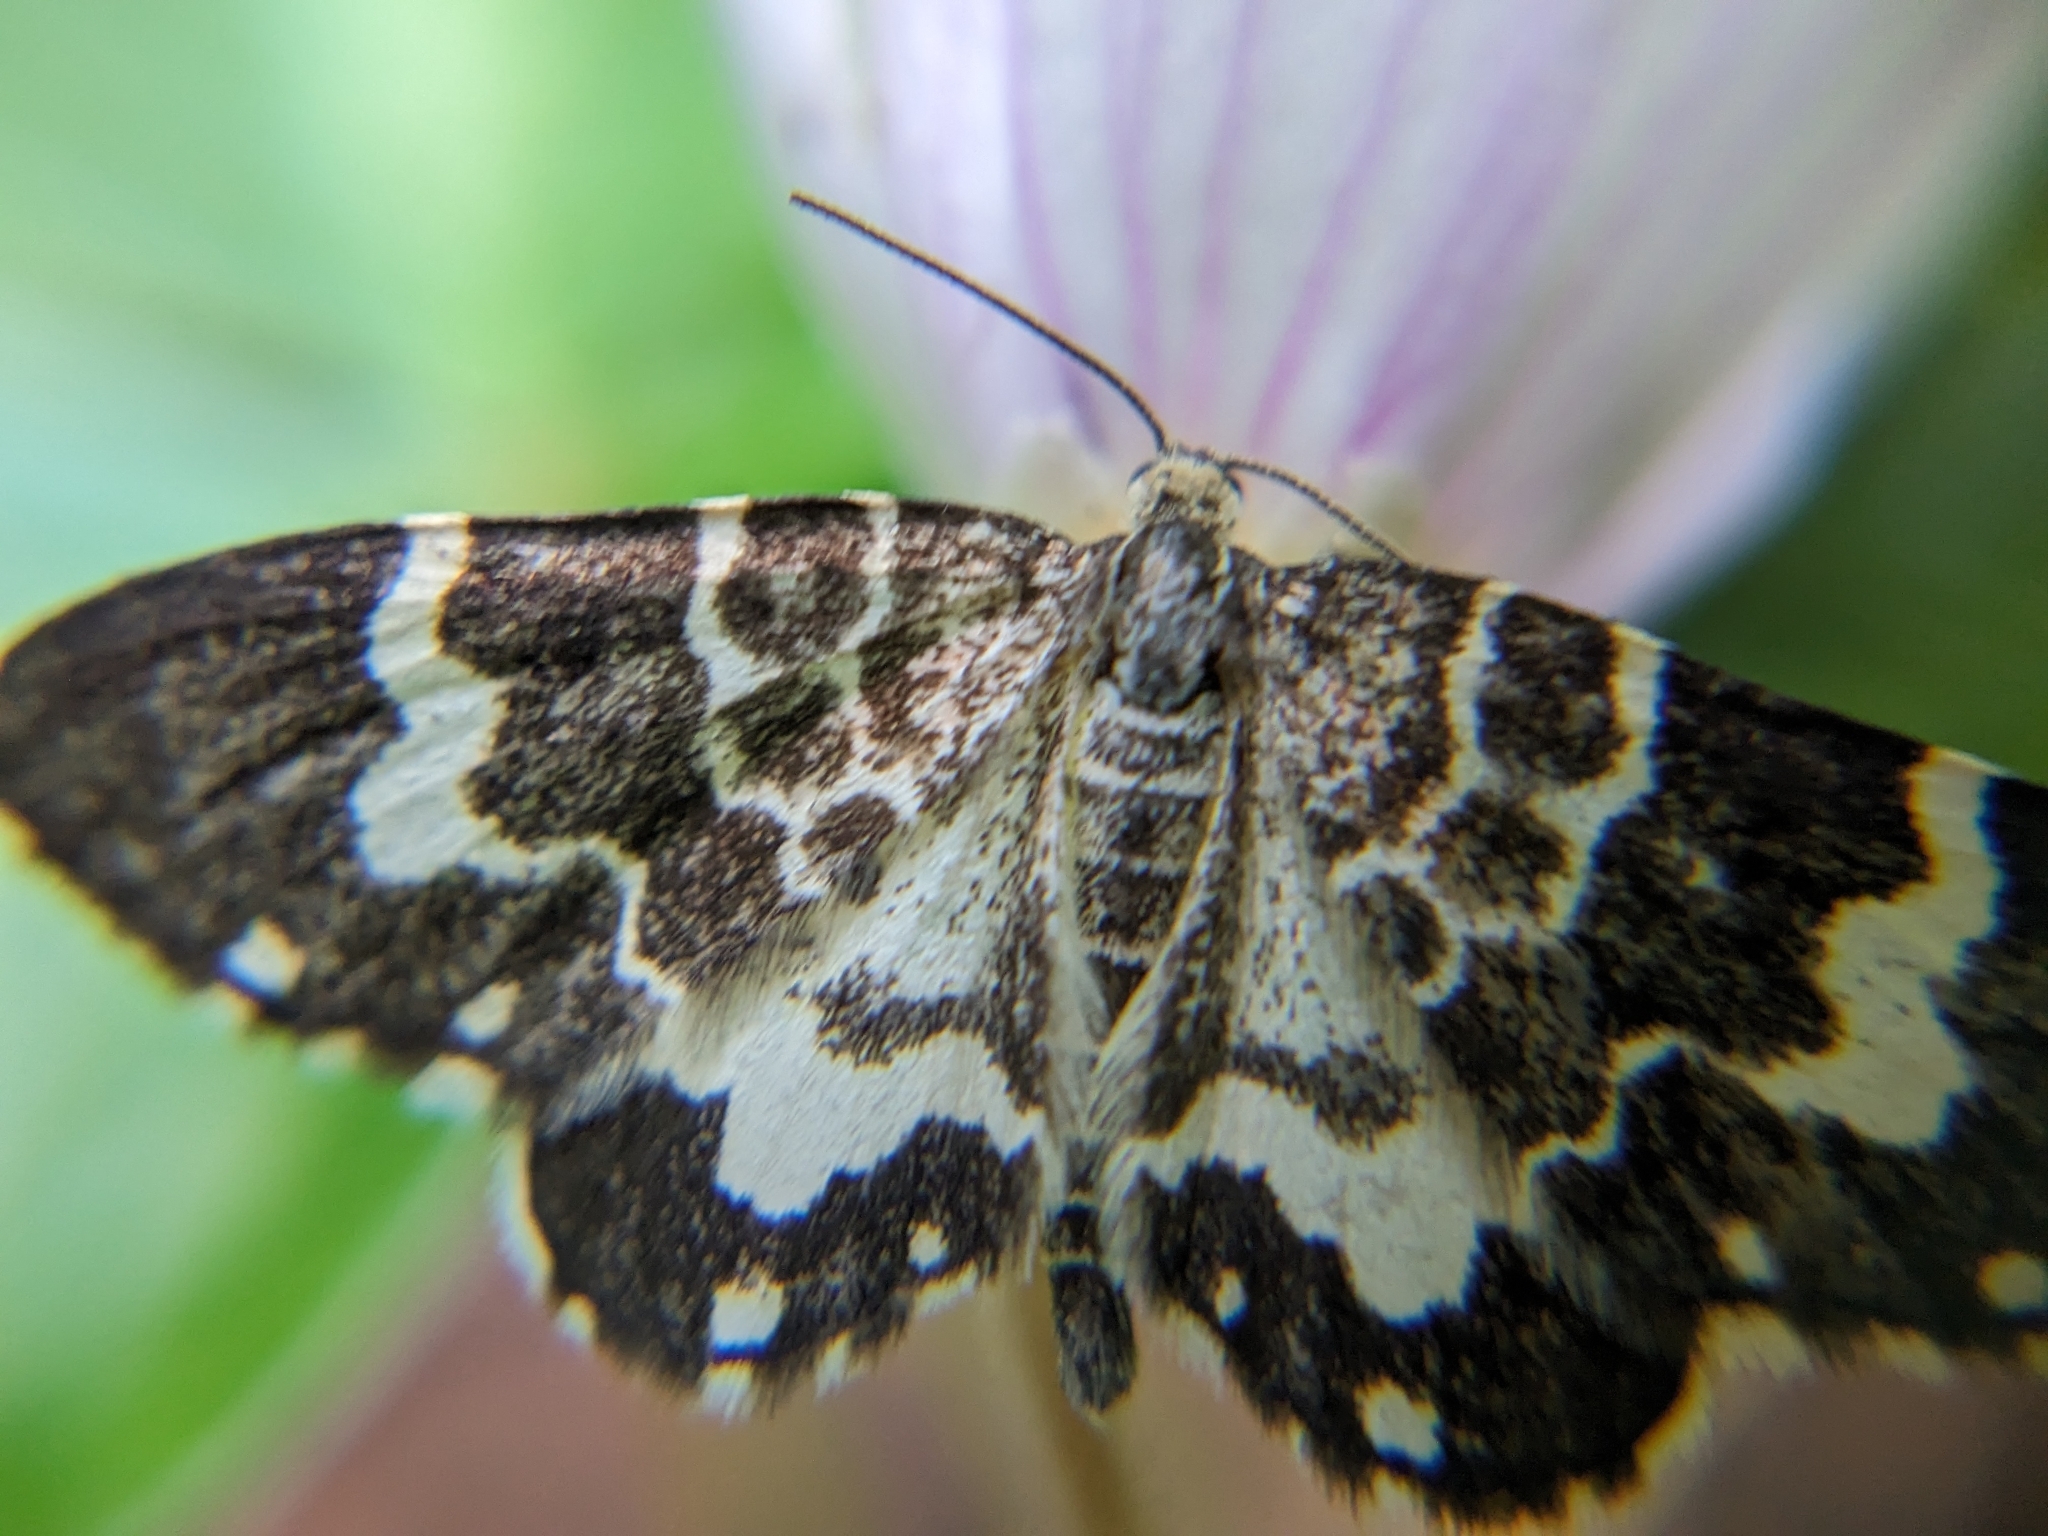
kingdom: Animalia
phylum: Arthropoda
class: Insecta
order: Lepidoptera
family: Geometridae
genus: Trichodezia
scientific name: Trichodezia californiata
